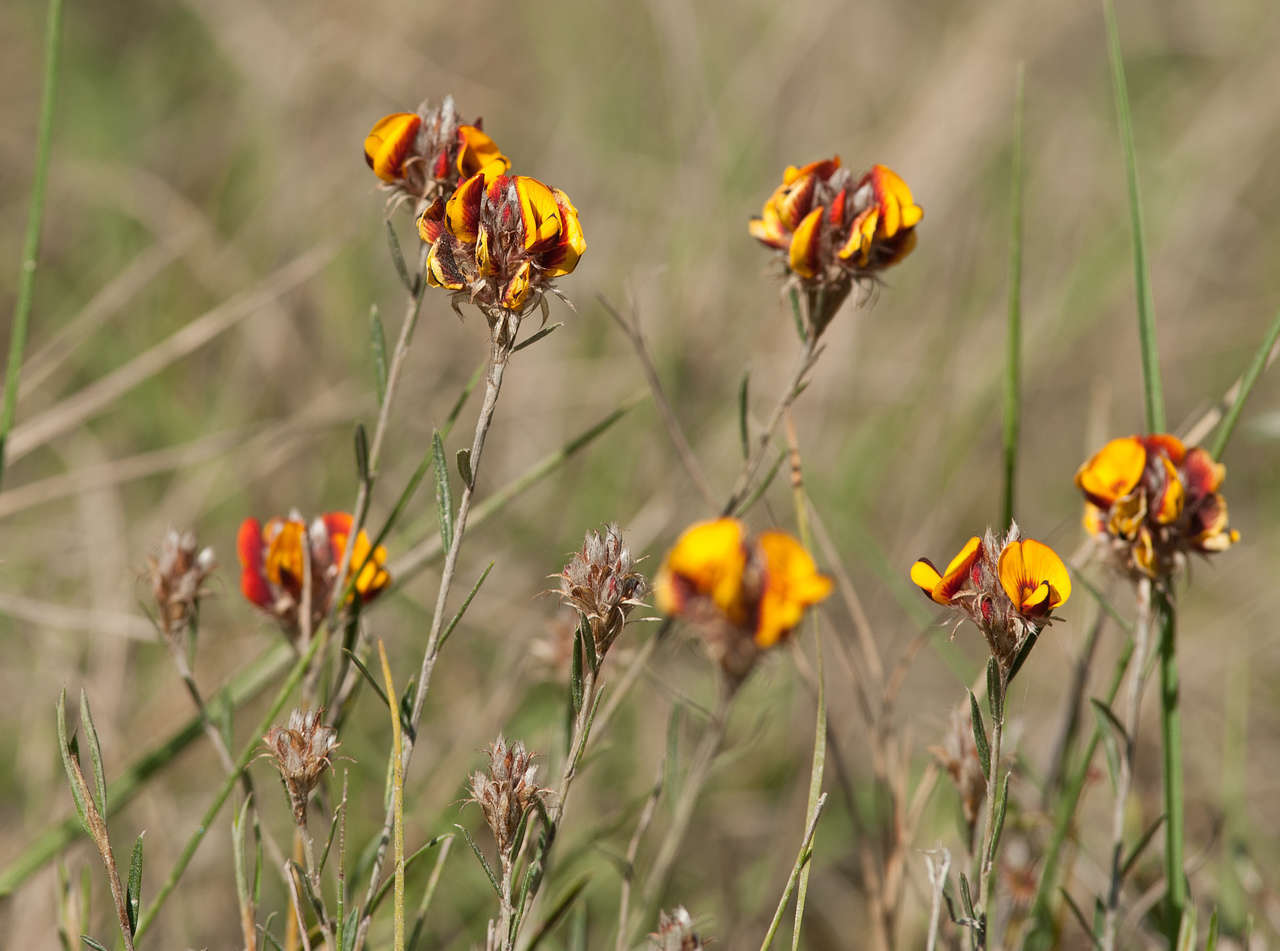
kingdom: Plantae
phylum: Tracheophyta
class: Magnoliopsida
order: Fabales
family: Fabaceae
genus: Almaleea
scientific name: Almaleea subumbellata
